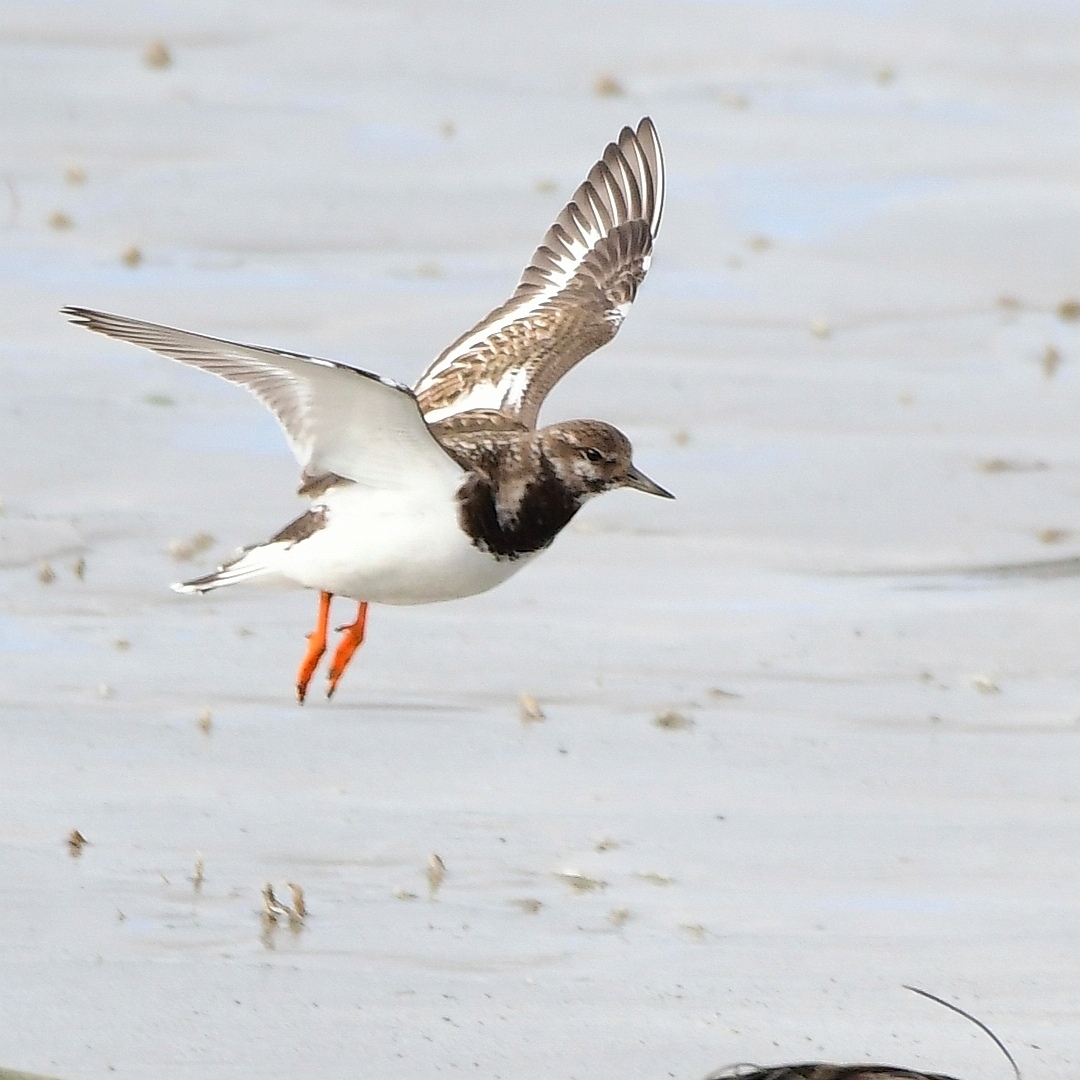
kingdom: Animalia
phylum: Chordata
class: Aves
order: Charadriiformes
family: Scolopacidae
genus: Arenaria
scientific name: Arenaria interpres
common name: Ruddy turnstone
